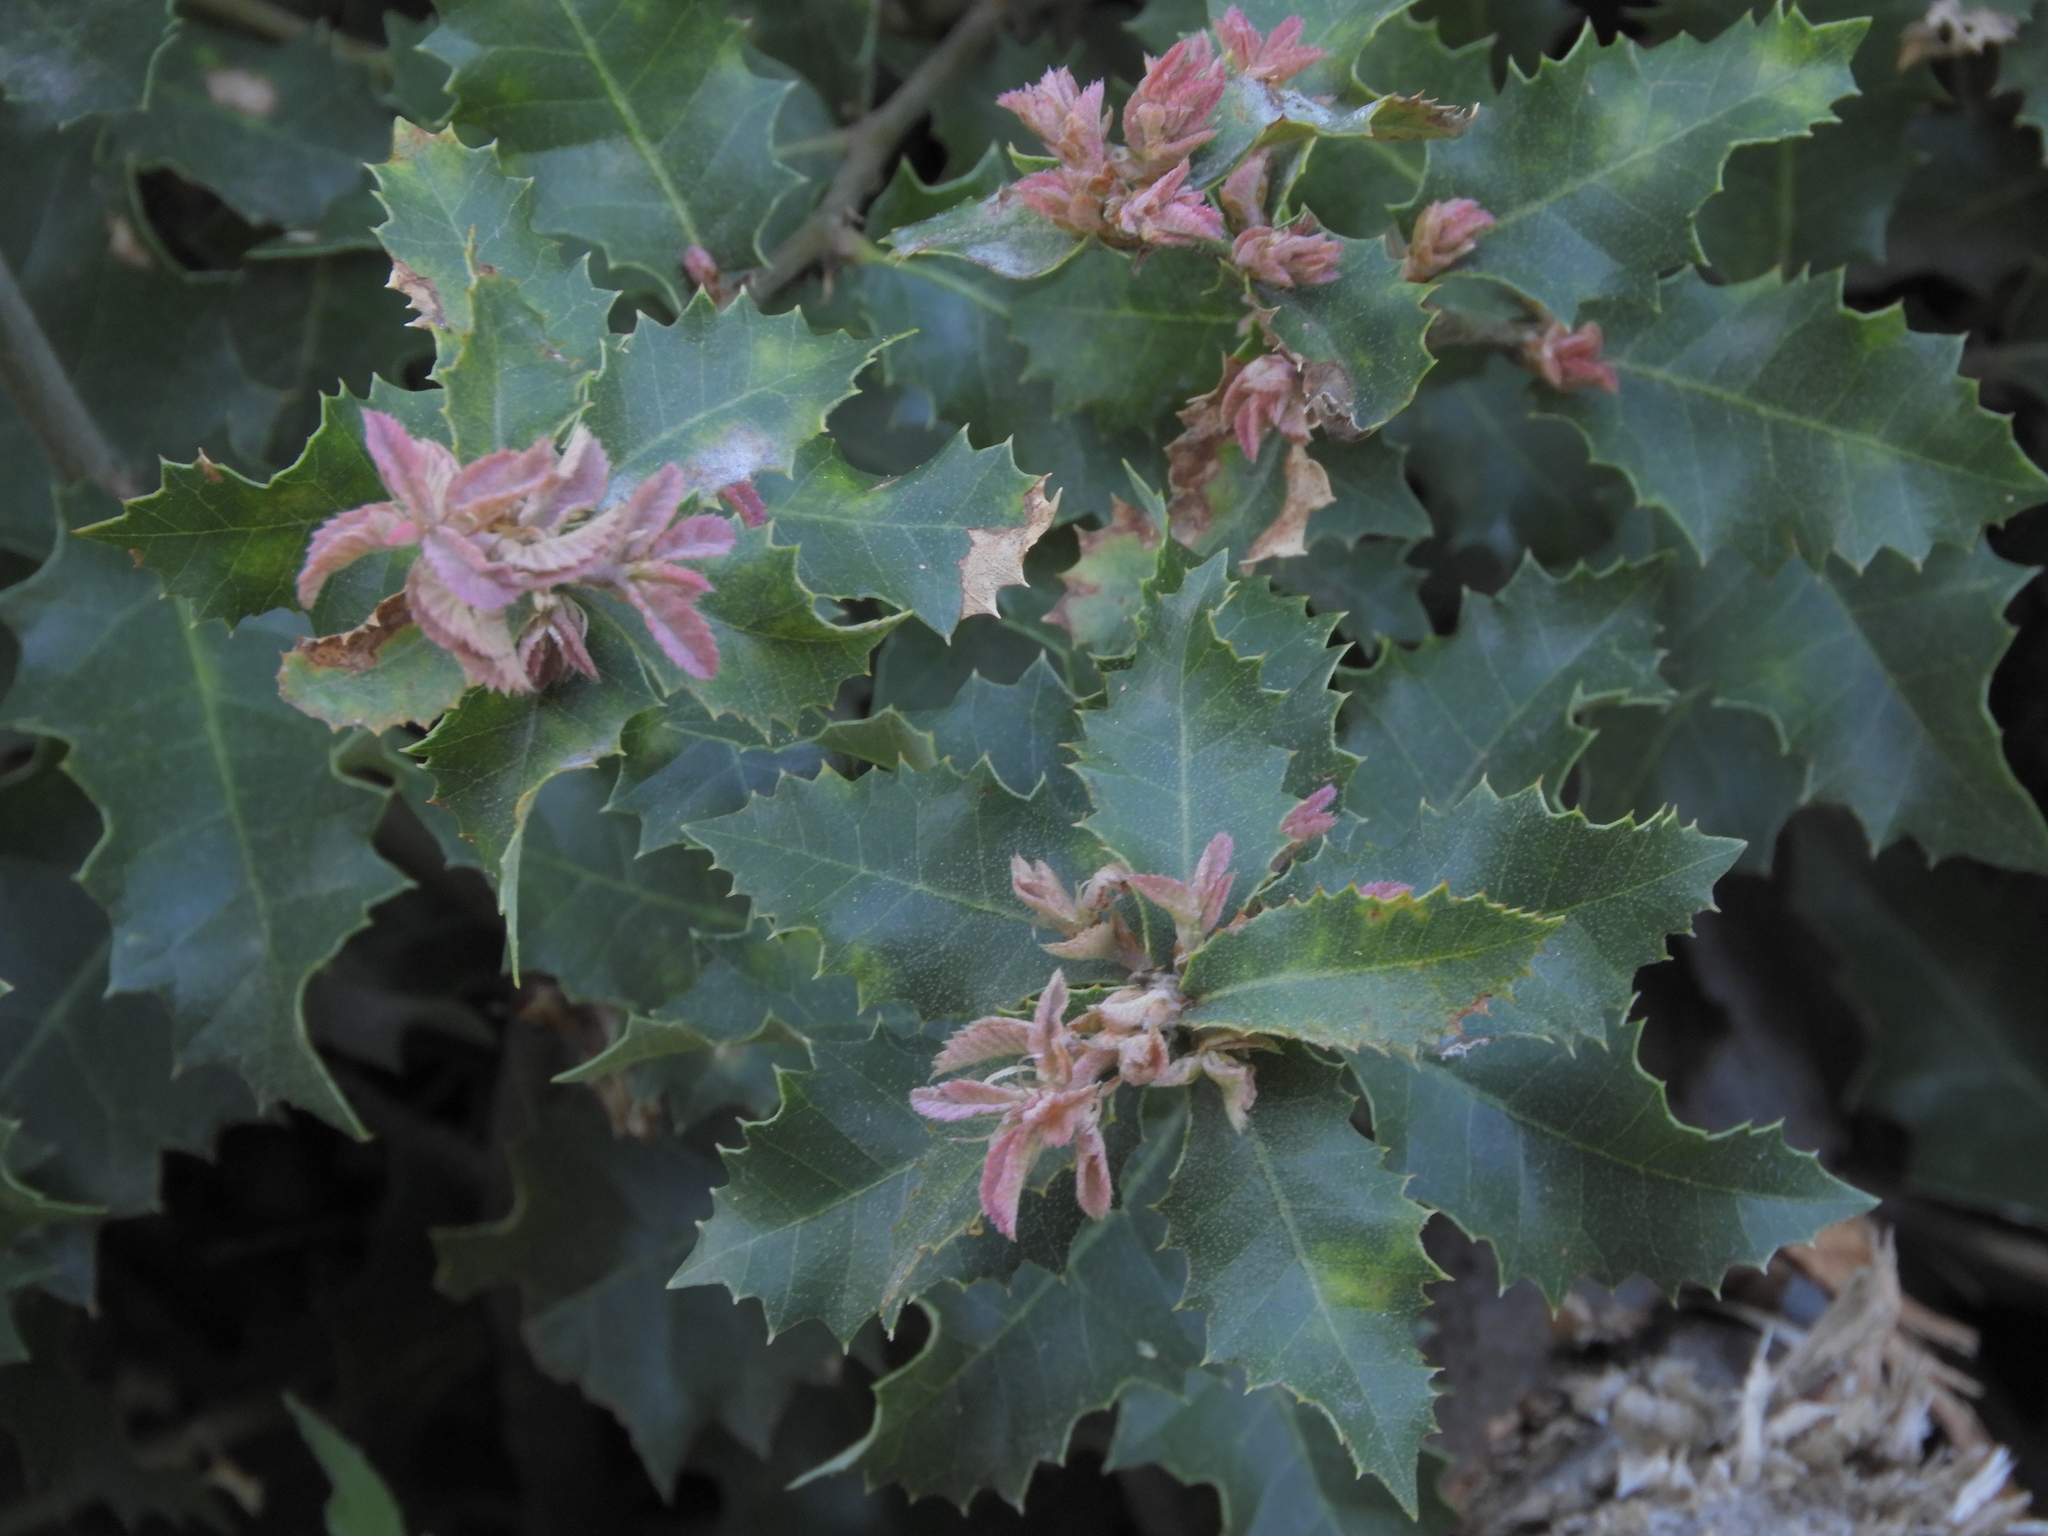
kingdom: Plantae
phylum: Tracheophyta
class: Magnoliopsida
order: Fagales
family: Fagaceae
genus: Quercus
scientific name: Quercus chrysolepis
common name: Canyon live oak
